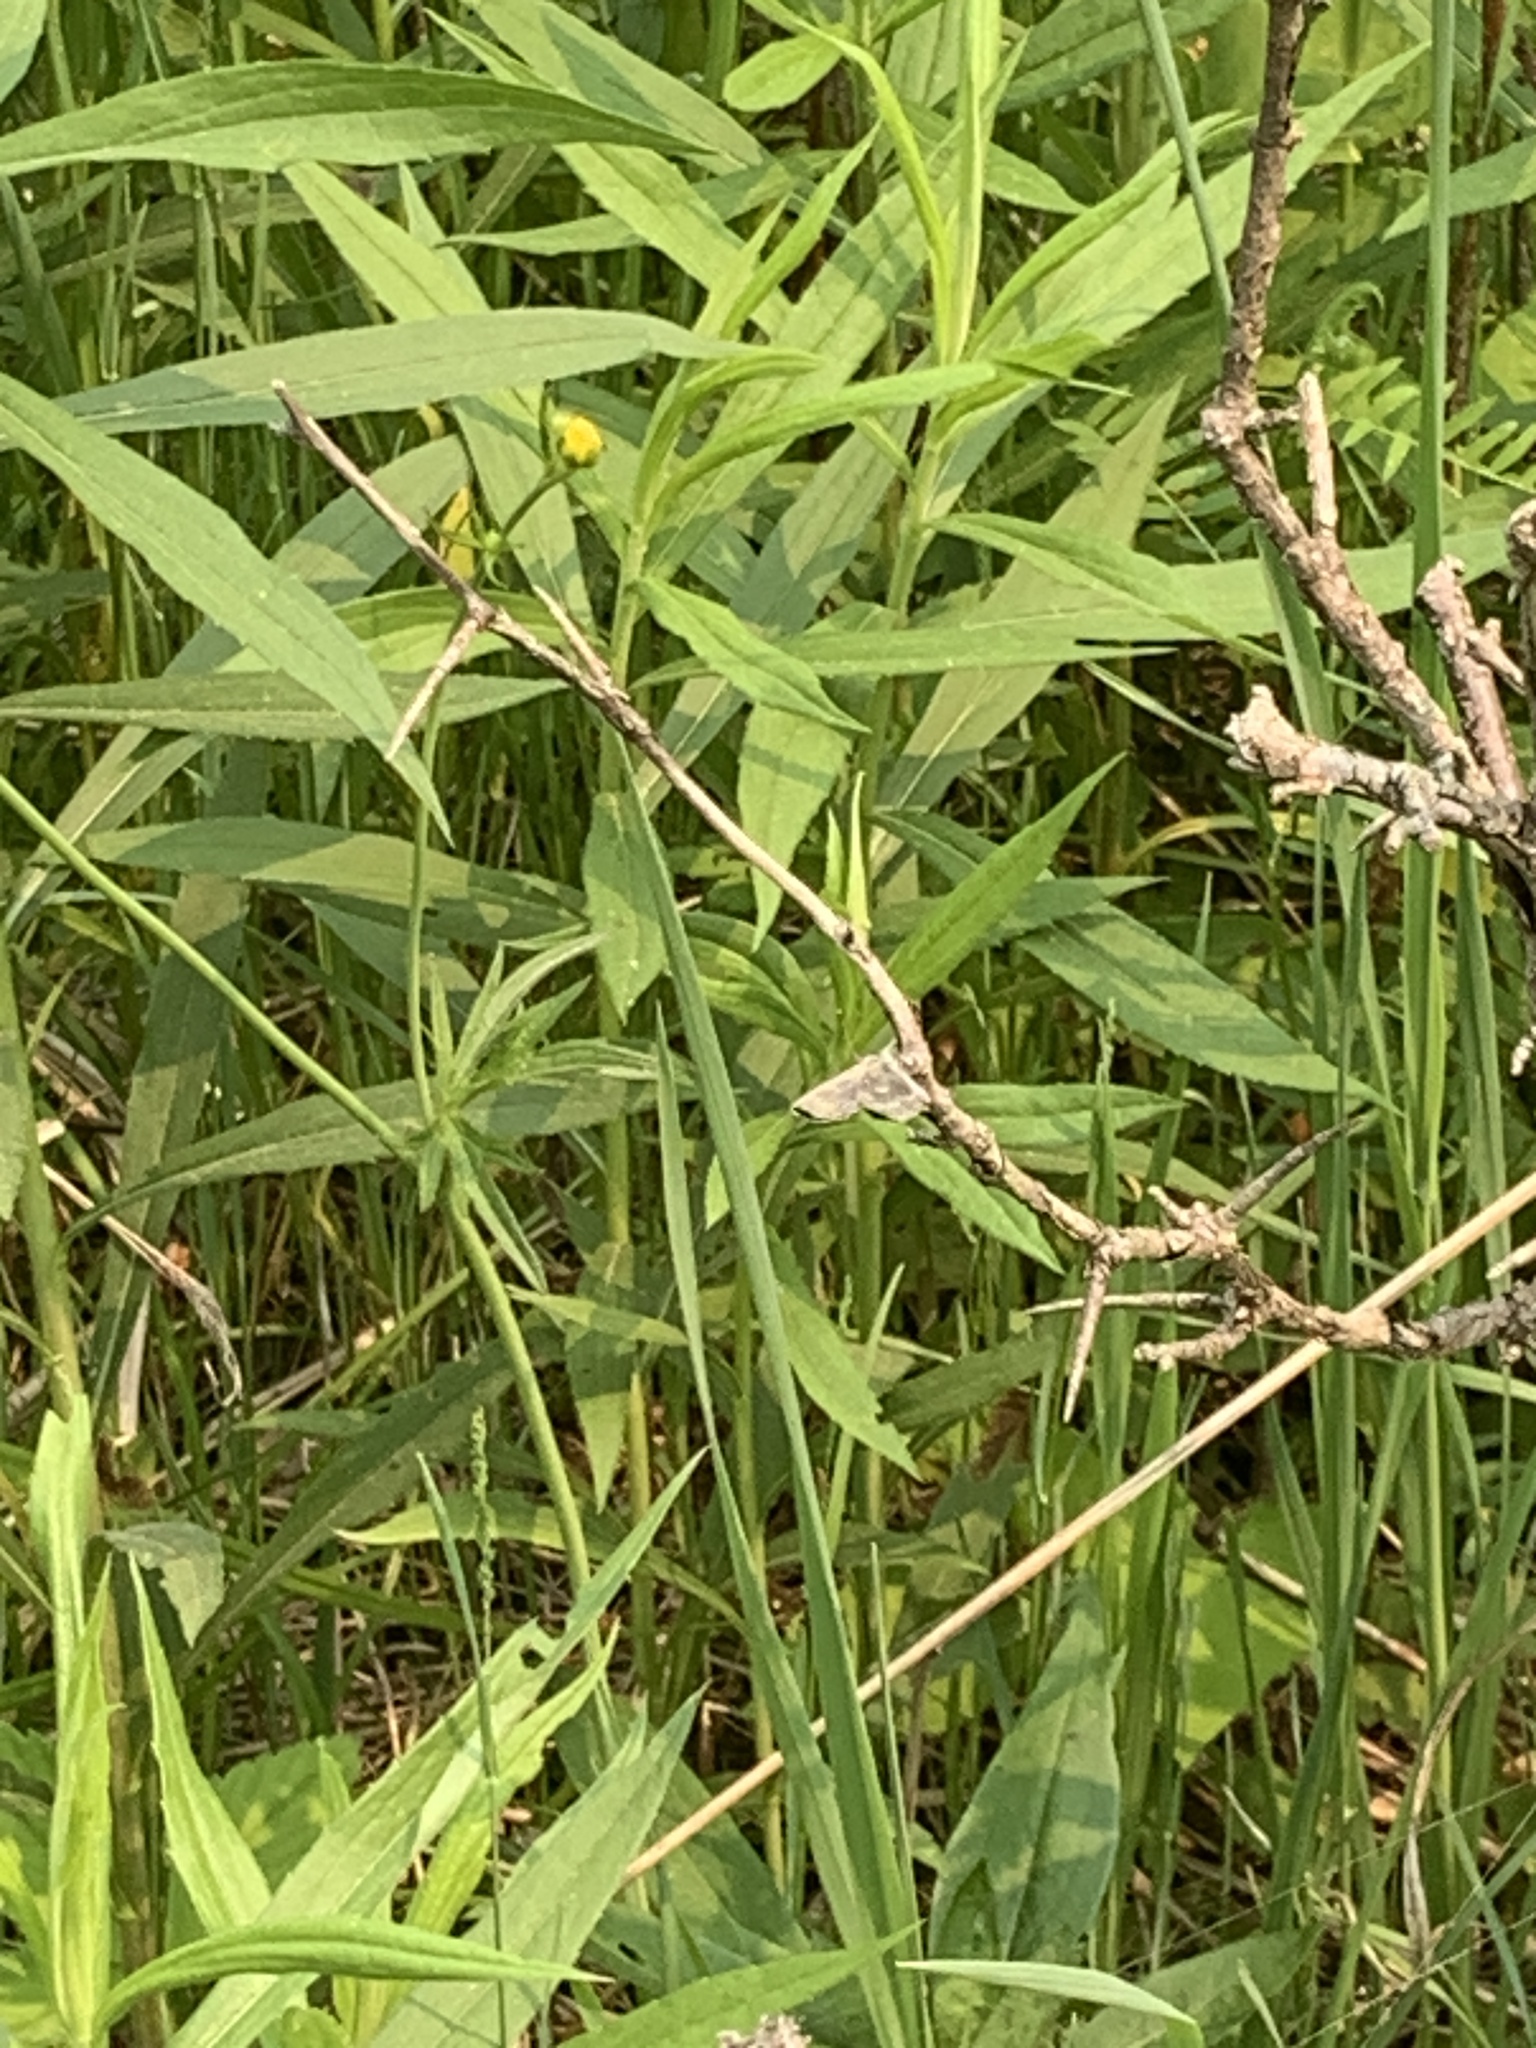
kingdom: Animalia
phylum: Arthropoda
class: Insecta
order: Lepidoptera
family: Lycaenidae
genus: Glaucopsyche
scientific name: Glaucopsyche lygdamus
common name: Silvery blue
